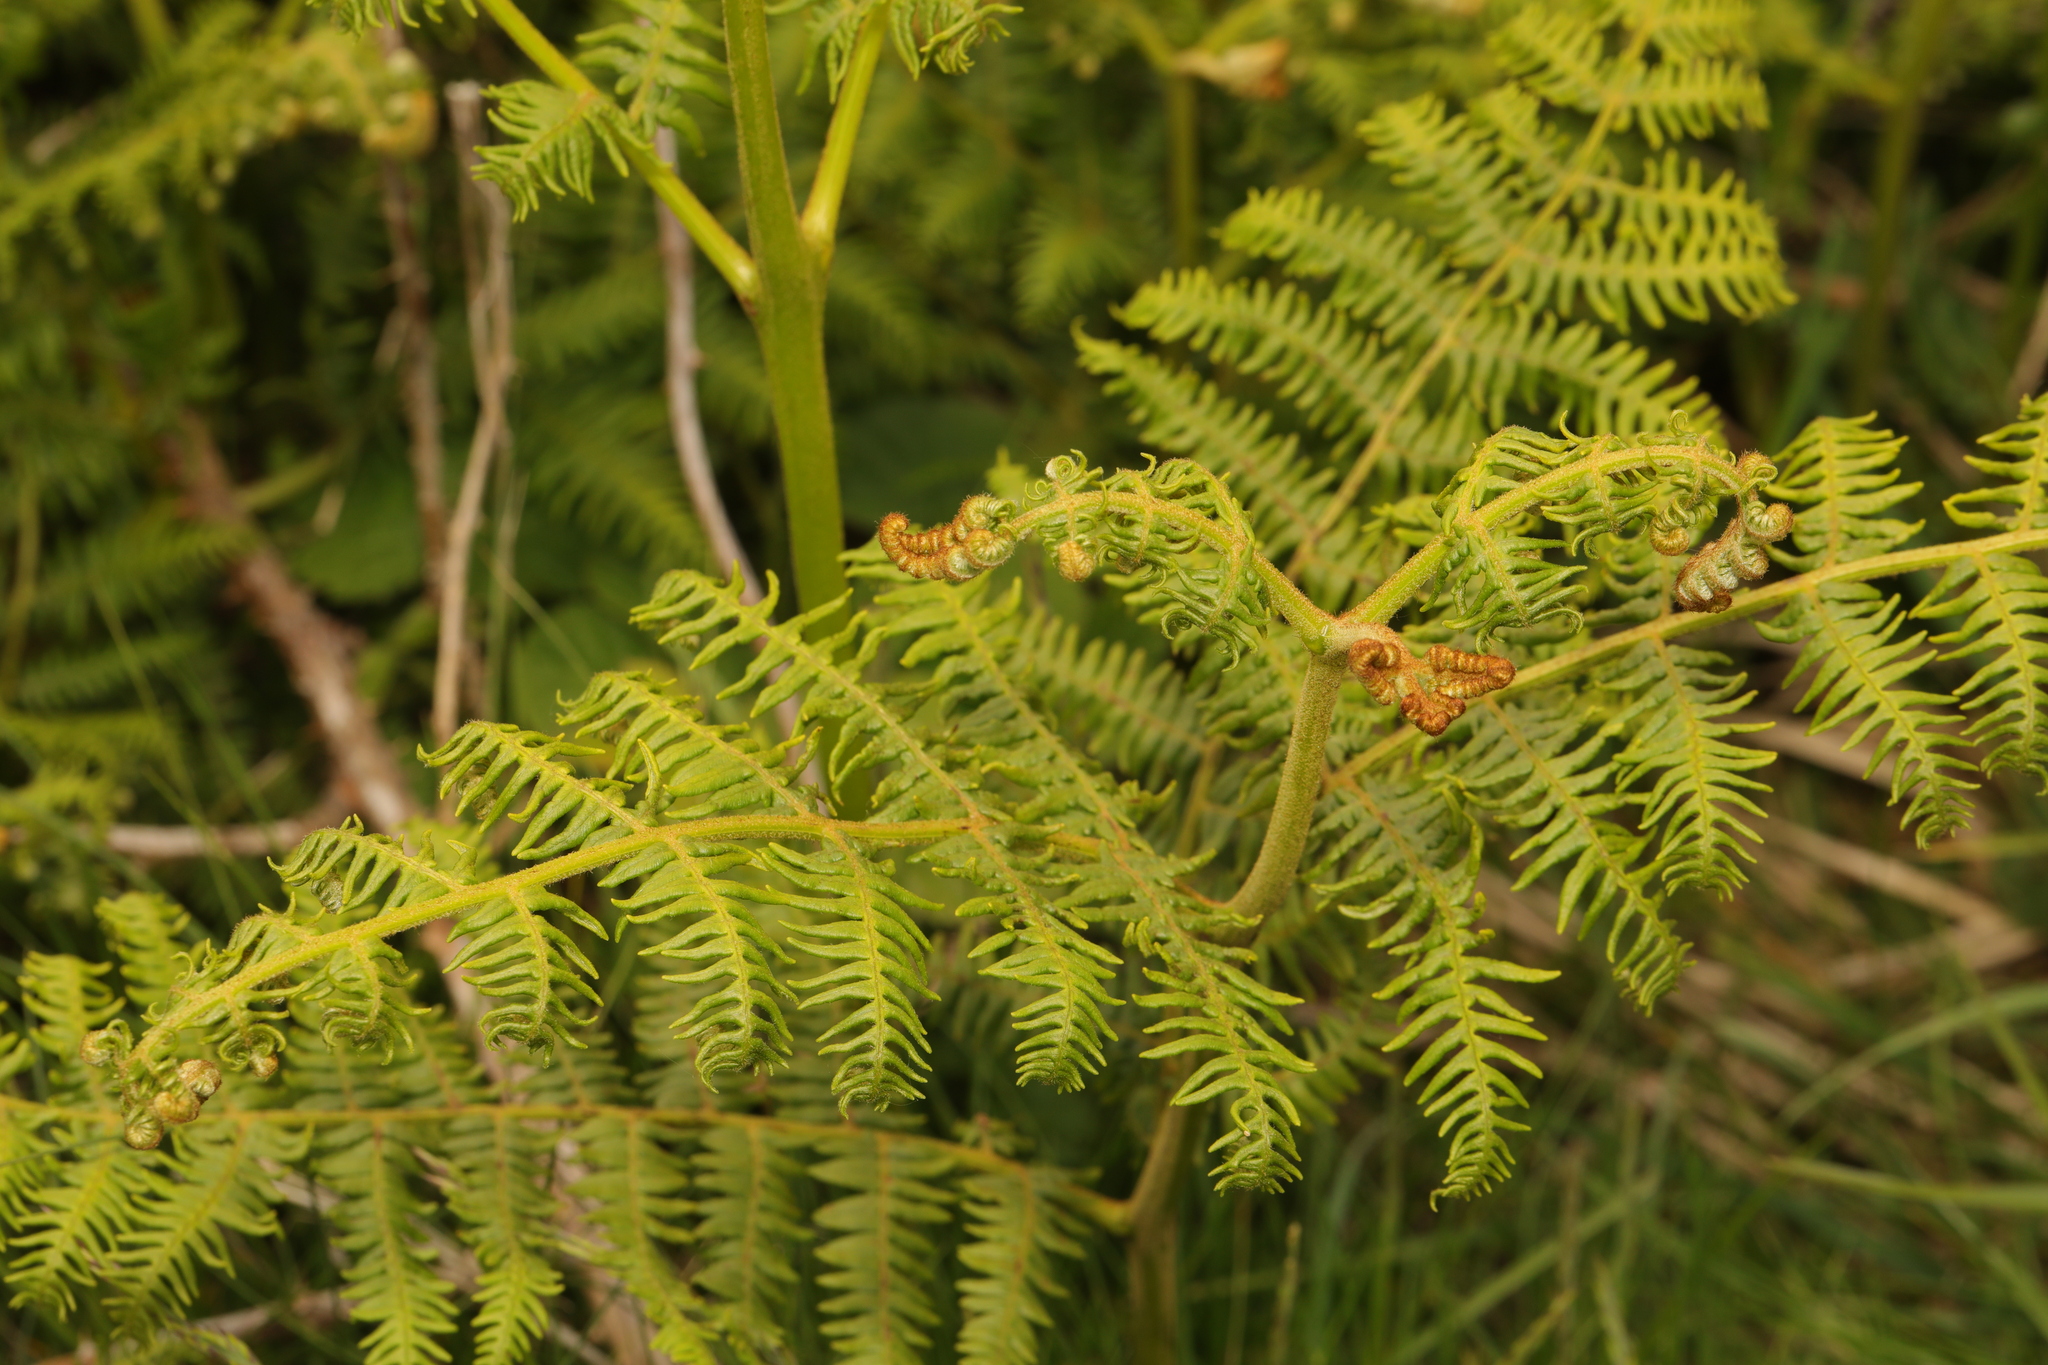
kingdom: Plantae
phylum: Tracheophyta
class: Polypodiopsida
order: Polypodiales
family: Dennstaedtiaceae
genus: Pteridium
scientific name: Pteridium aquilinum
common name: Bracken
